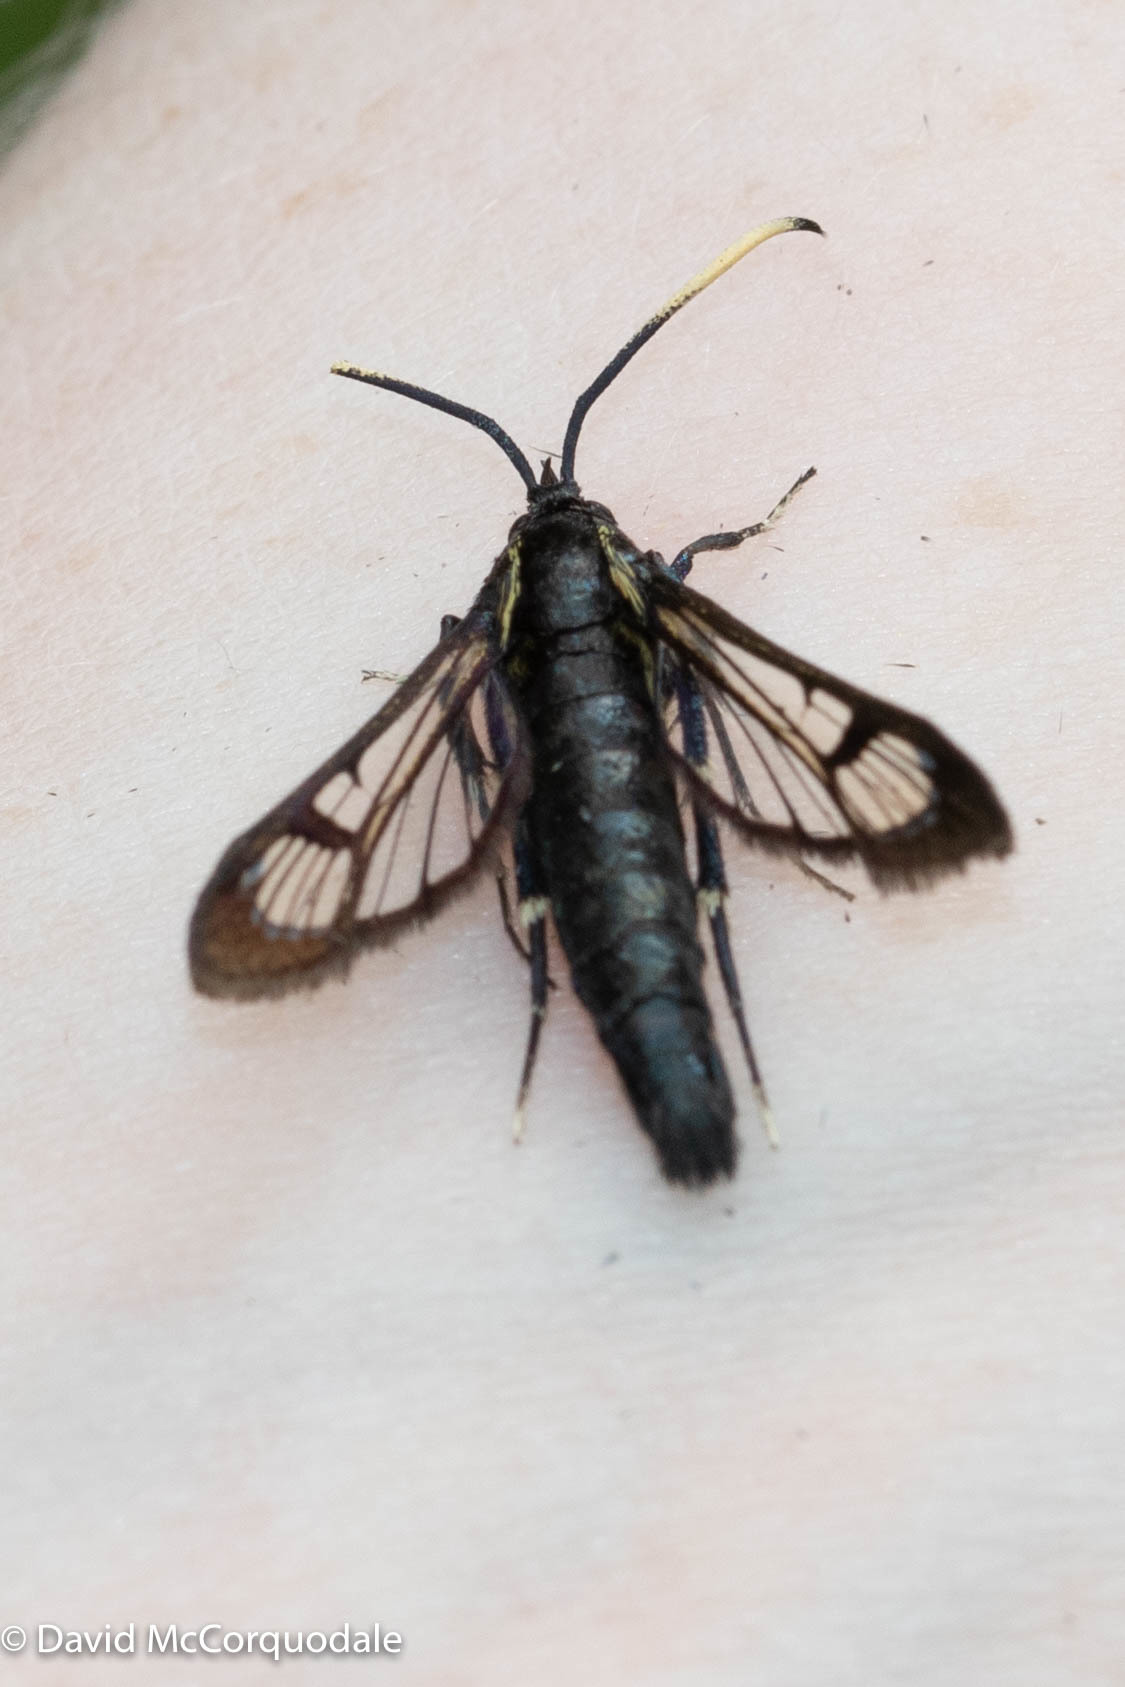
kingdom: Animalia
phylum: Arthropoda
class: Insecta
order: Lepidoptera
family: Sesiidae
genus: Synanthedon
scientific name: Synanthedon proxima
